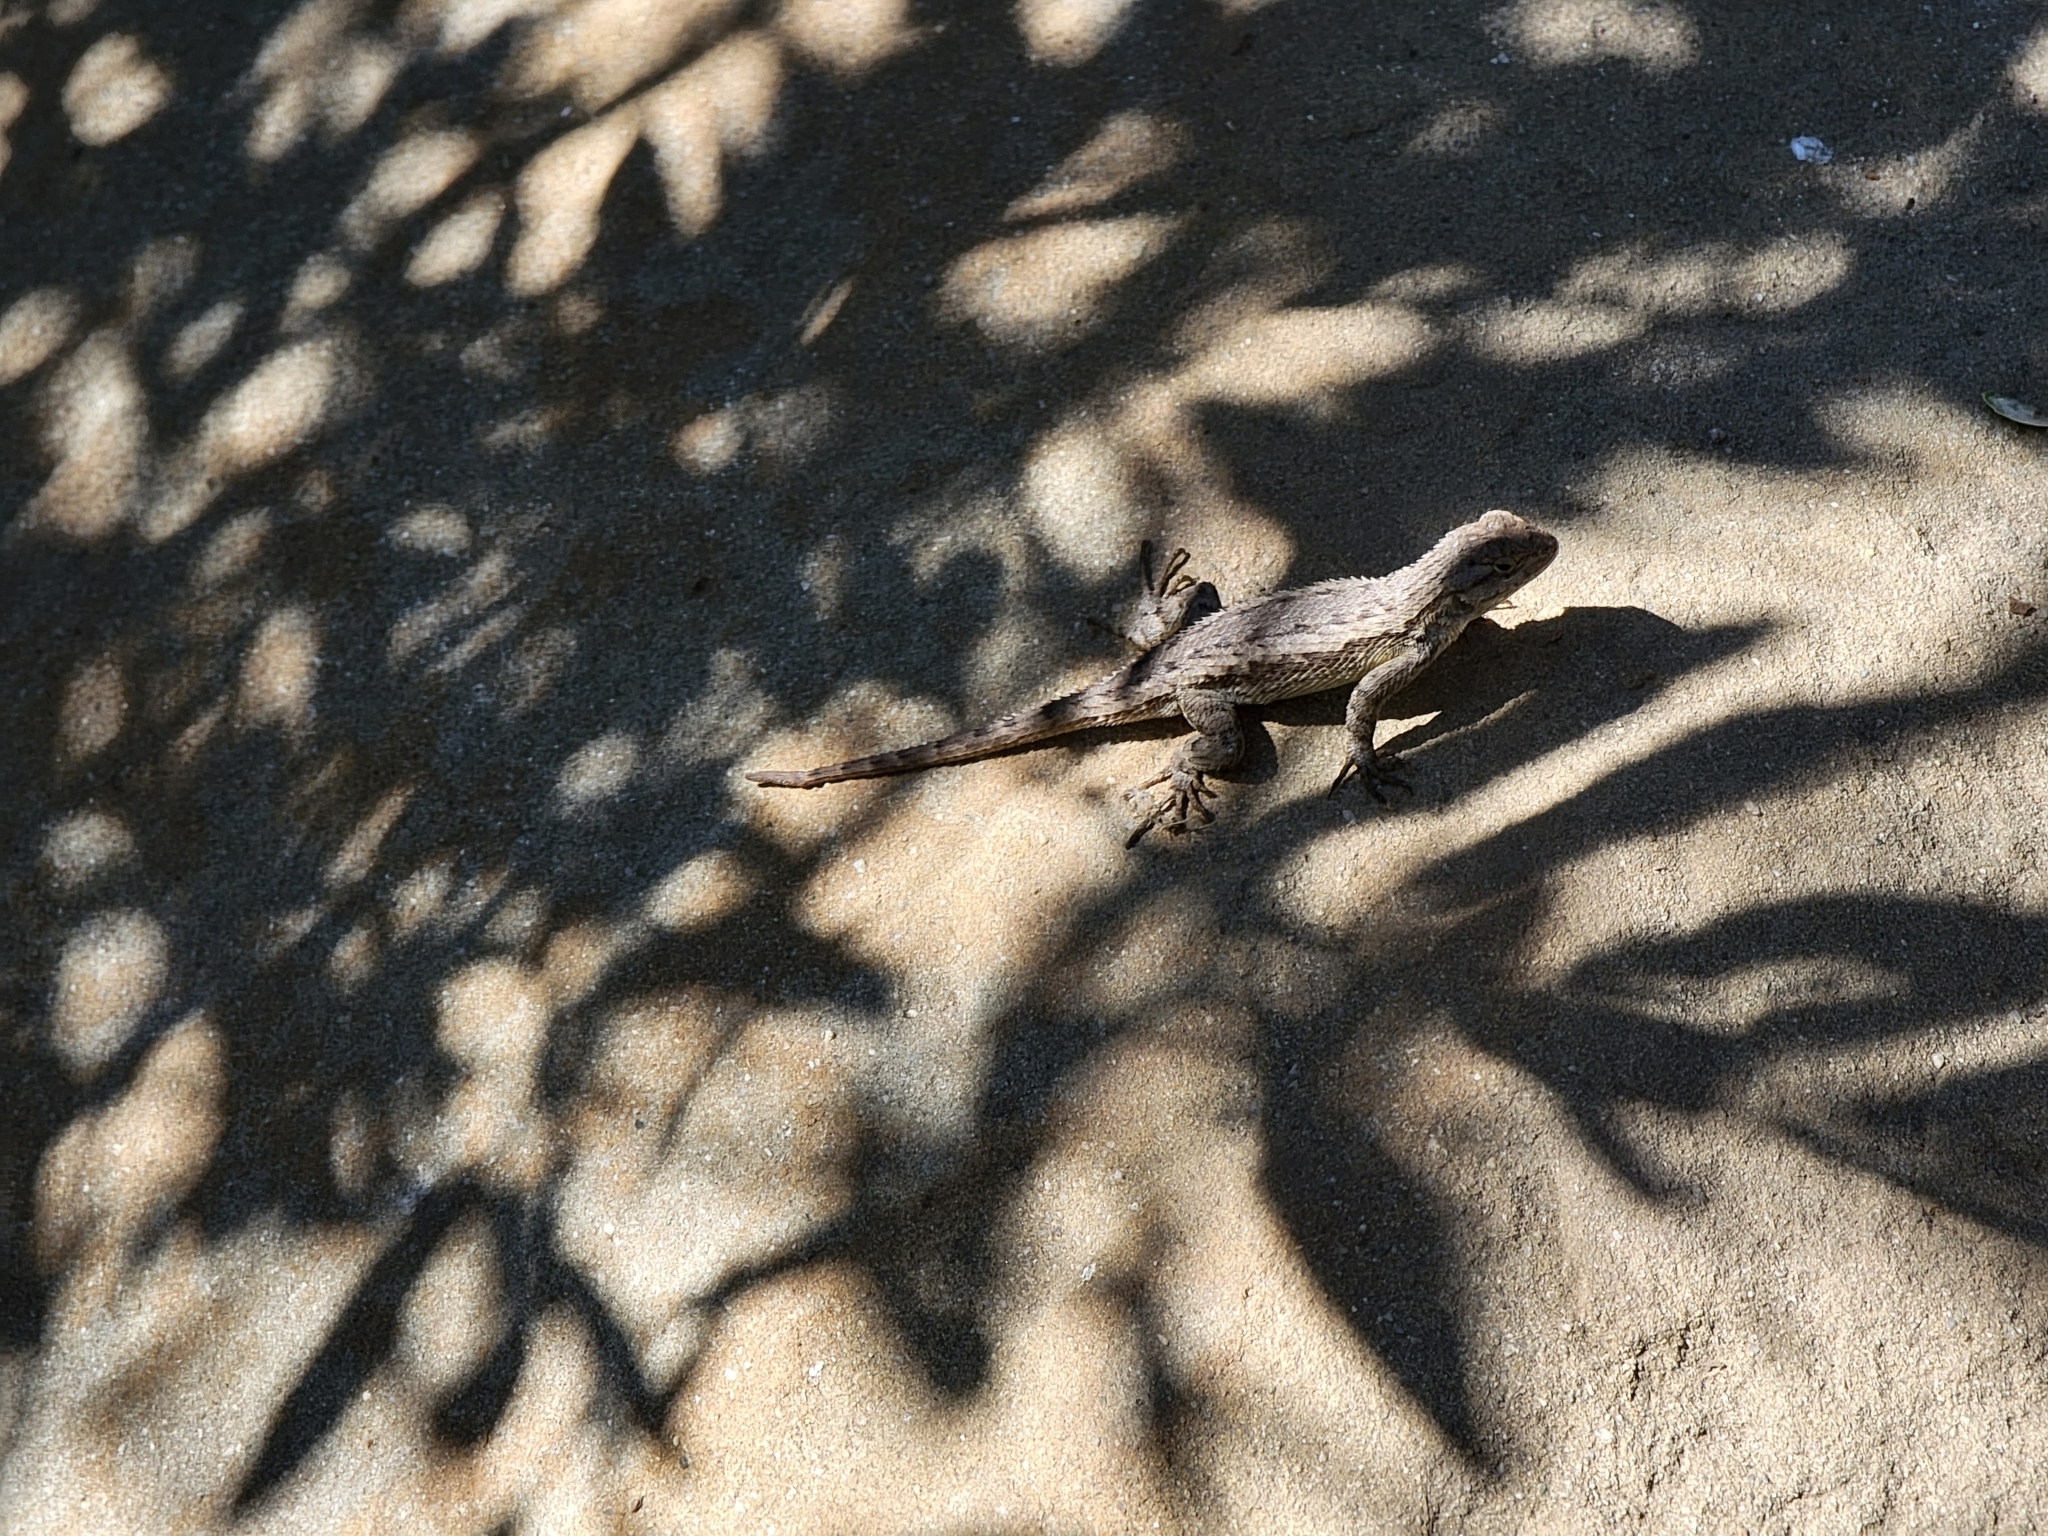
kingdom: Animalia
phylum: Chordata
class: Squamata
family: Phrynosomatidae
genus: Sceloporus
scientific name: Sceloporus occidentalis
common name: Western fence lizard
